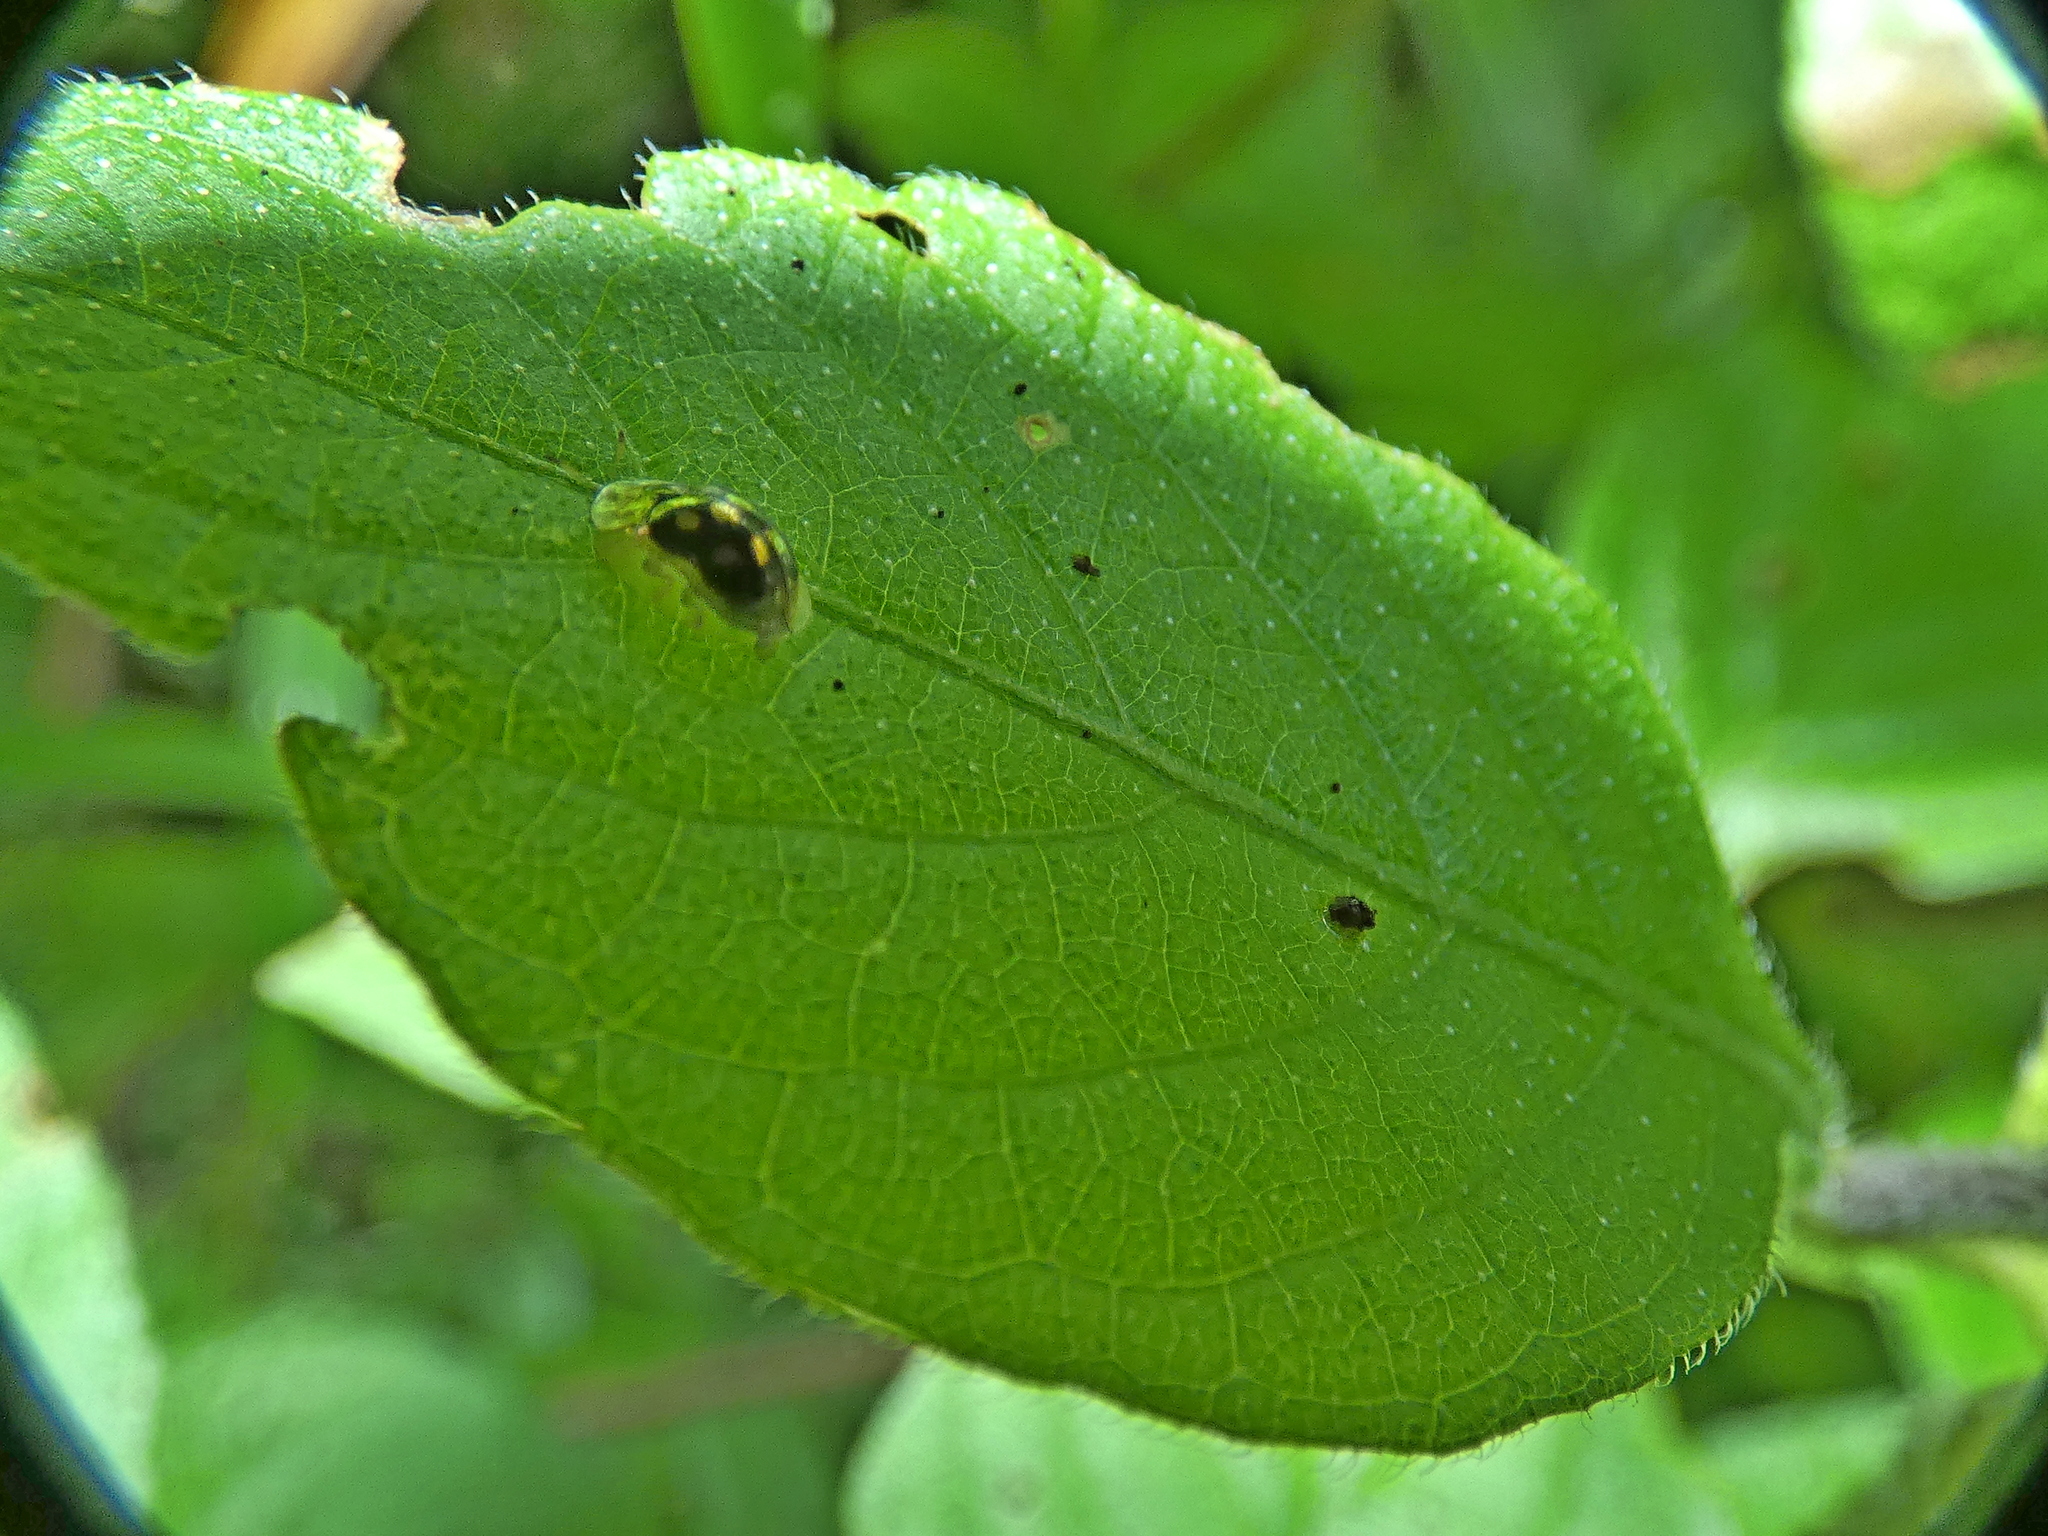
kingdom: Animalia
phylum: Arthropoda
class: Insecta
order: Coleoptera
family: Chrysomelidae
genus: Plagiometriona
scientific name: Plagiometriona microcera
